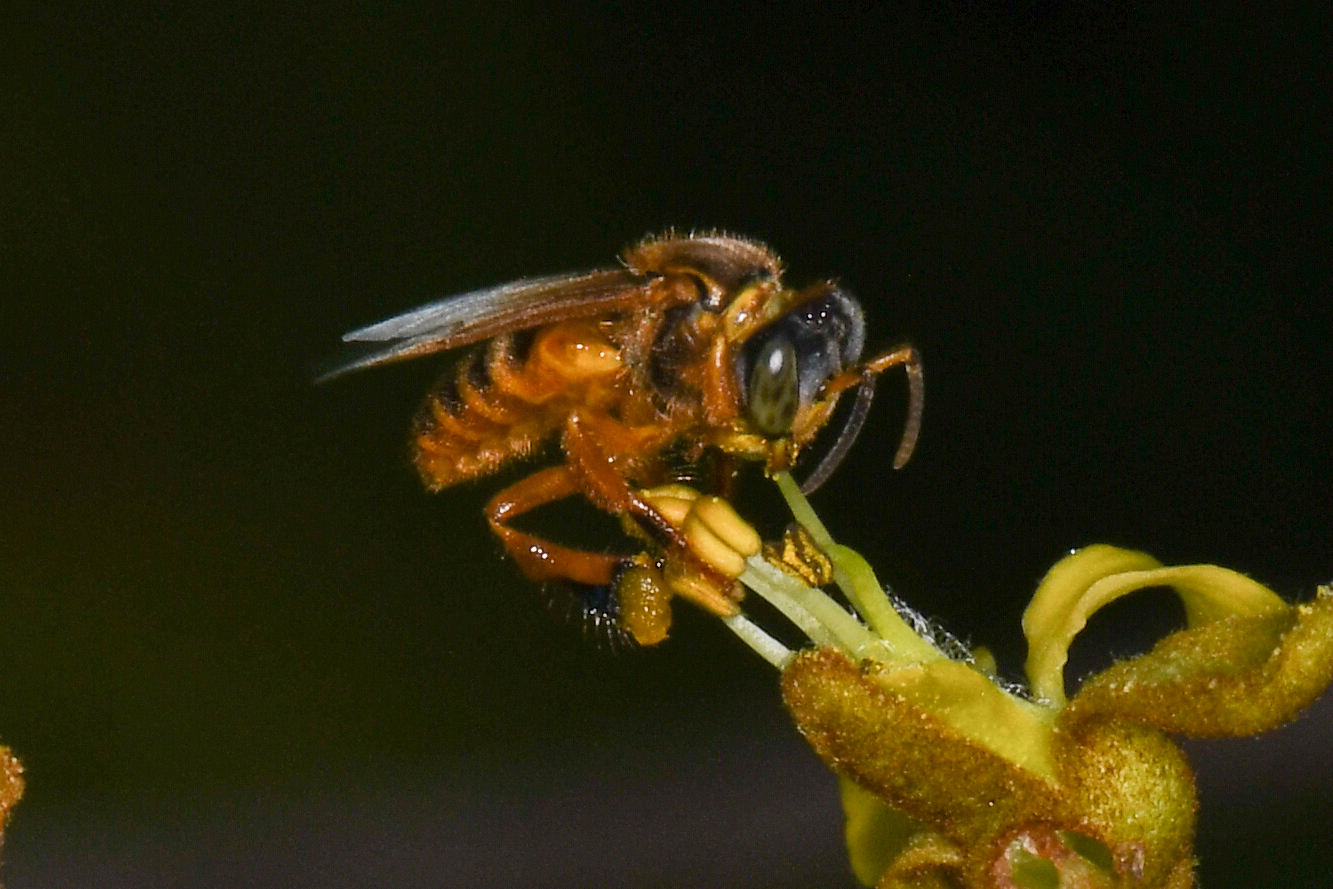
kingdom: Animalia
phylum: Arthropoda
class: Insecta
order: Hymenoptera
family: Apidae
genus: Tetragona
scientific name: Tetragona perangulata
